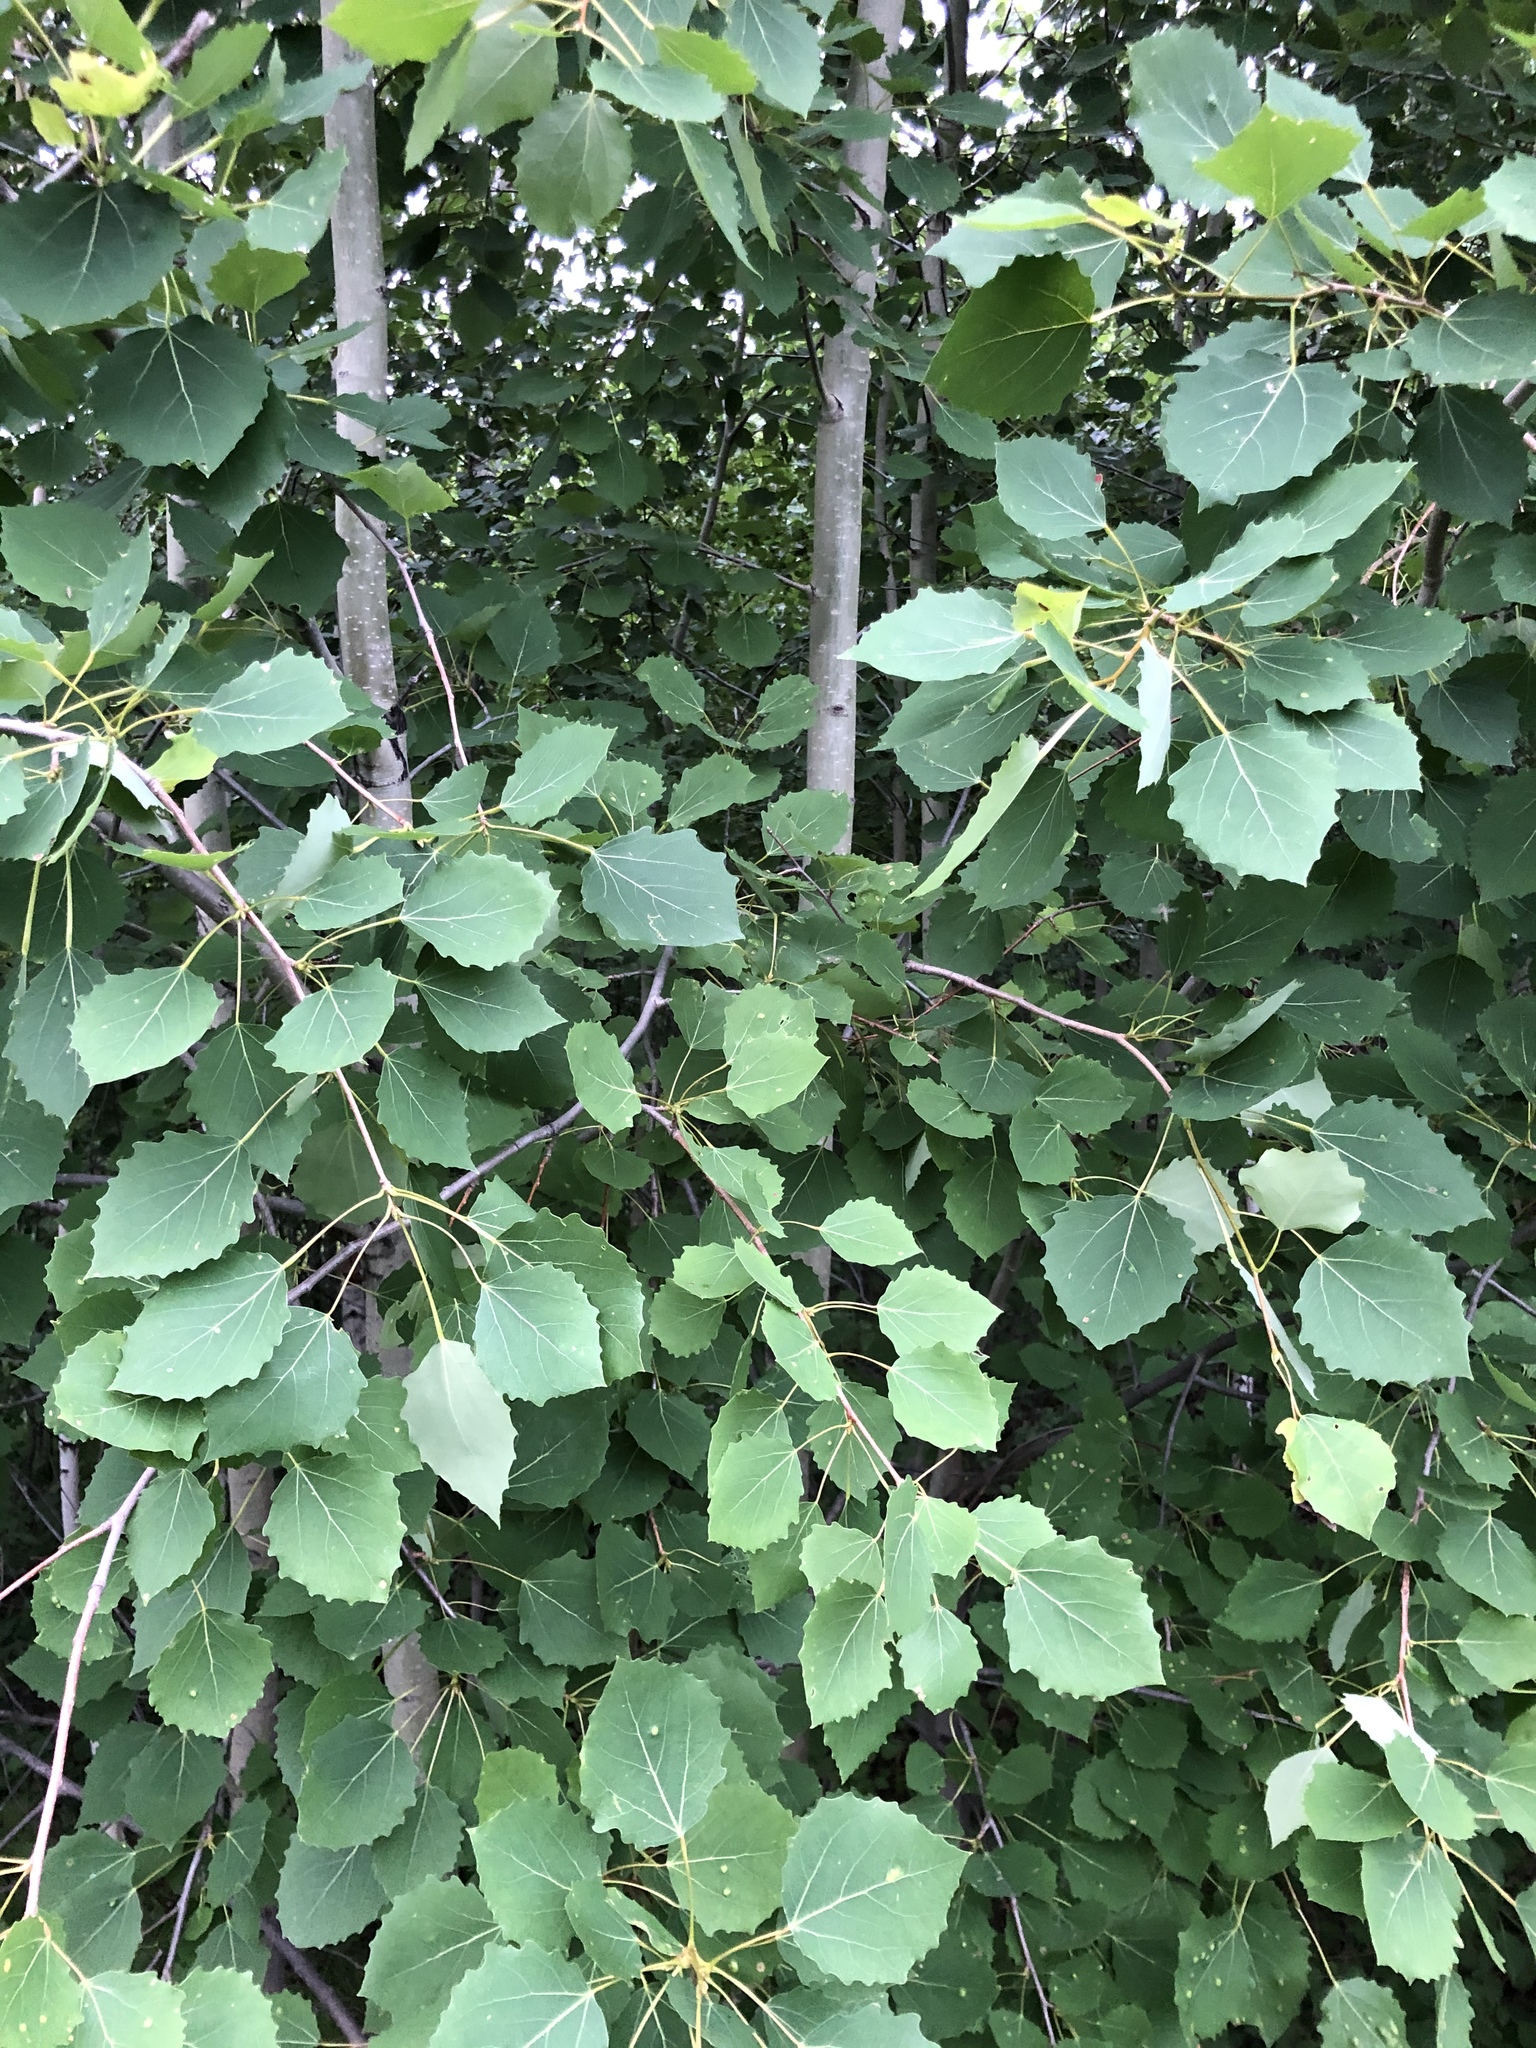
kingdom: Plantae
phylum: Tracheophyta
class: Magnoliopsida
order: Malpighiales
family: Salicaceae
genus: Populus
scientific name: Populus tremula
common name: European aspen
